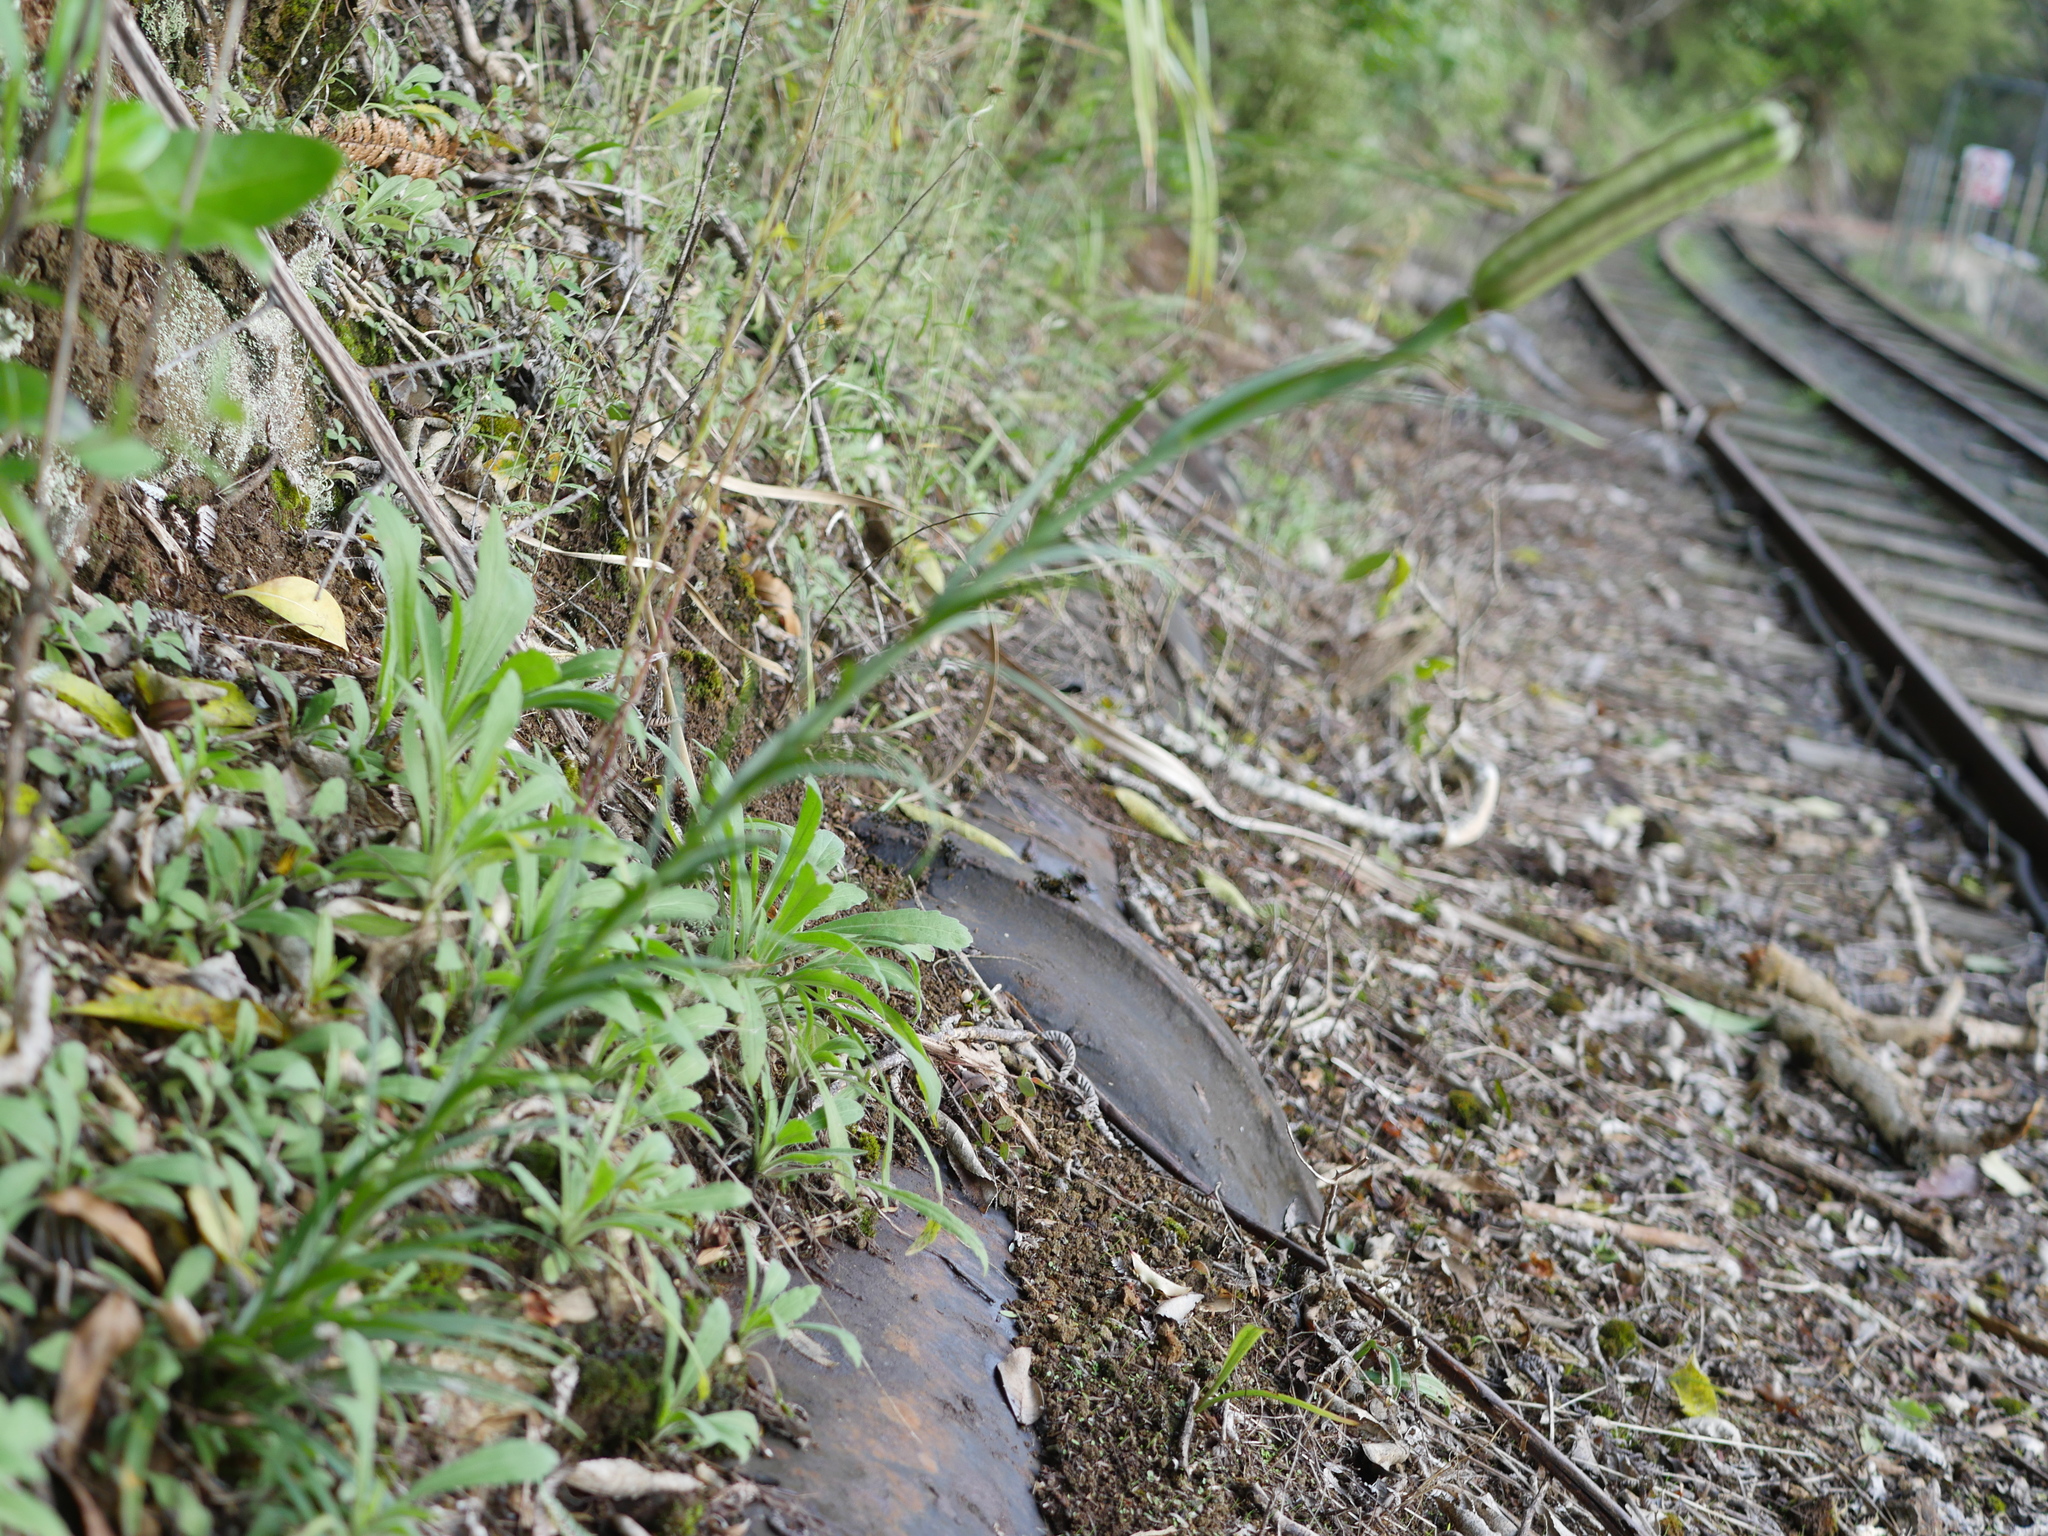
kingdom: Plantae
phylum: Tracheophyta
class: Liliopsida
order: Liliales
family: Liliaceae
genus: Lilium
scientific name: Lilium formosanum
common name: Formosa lily
